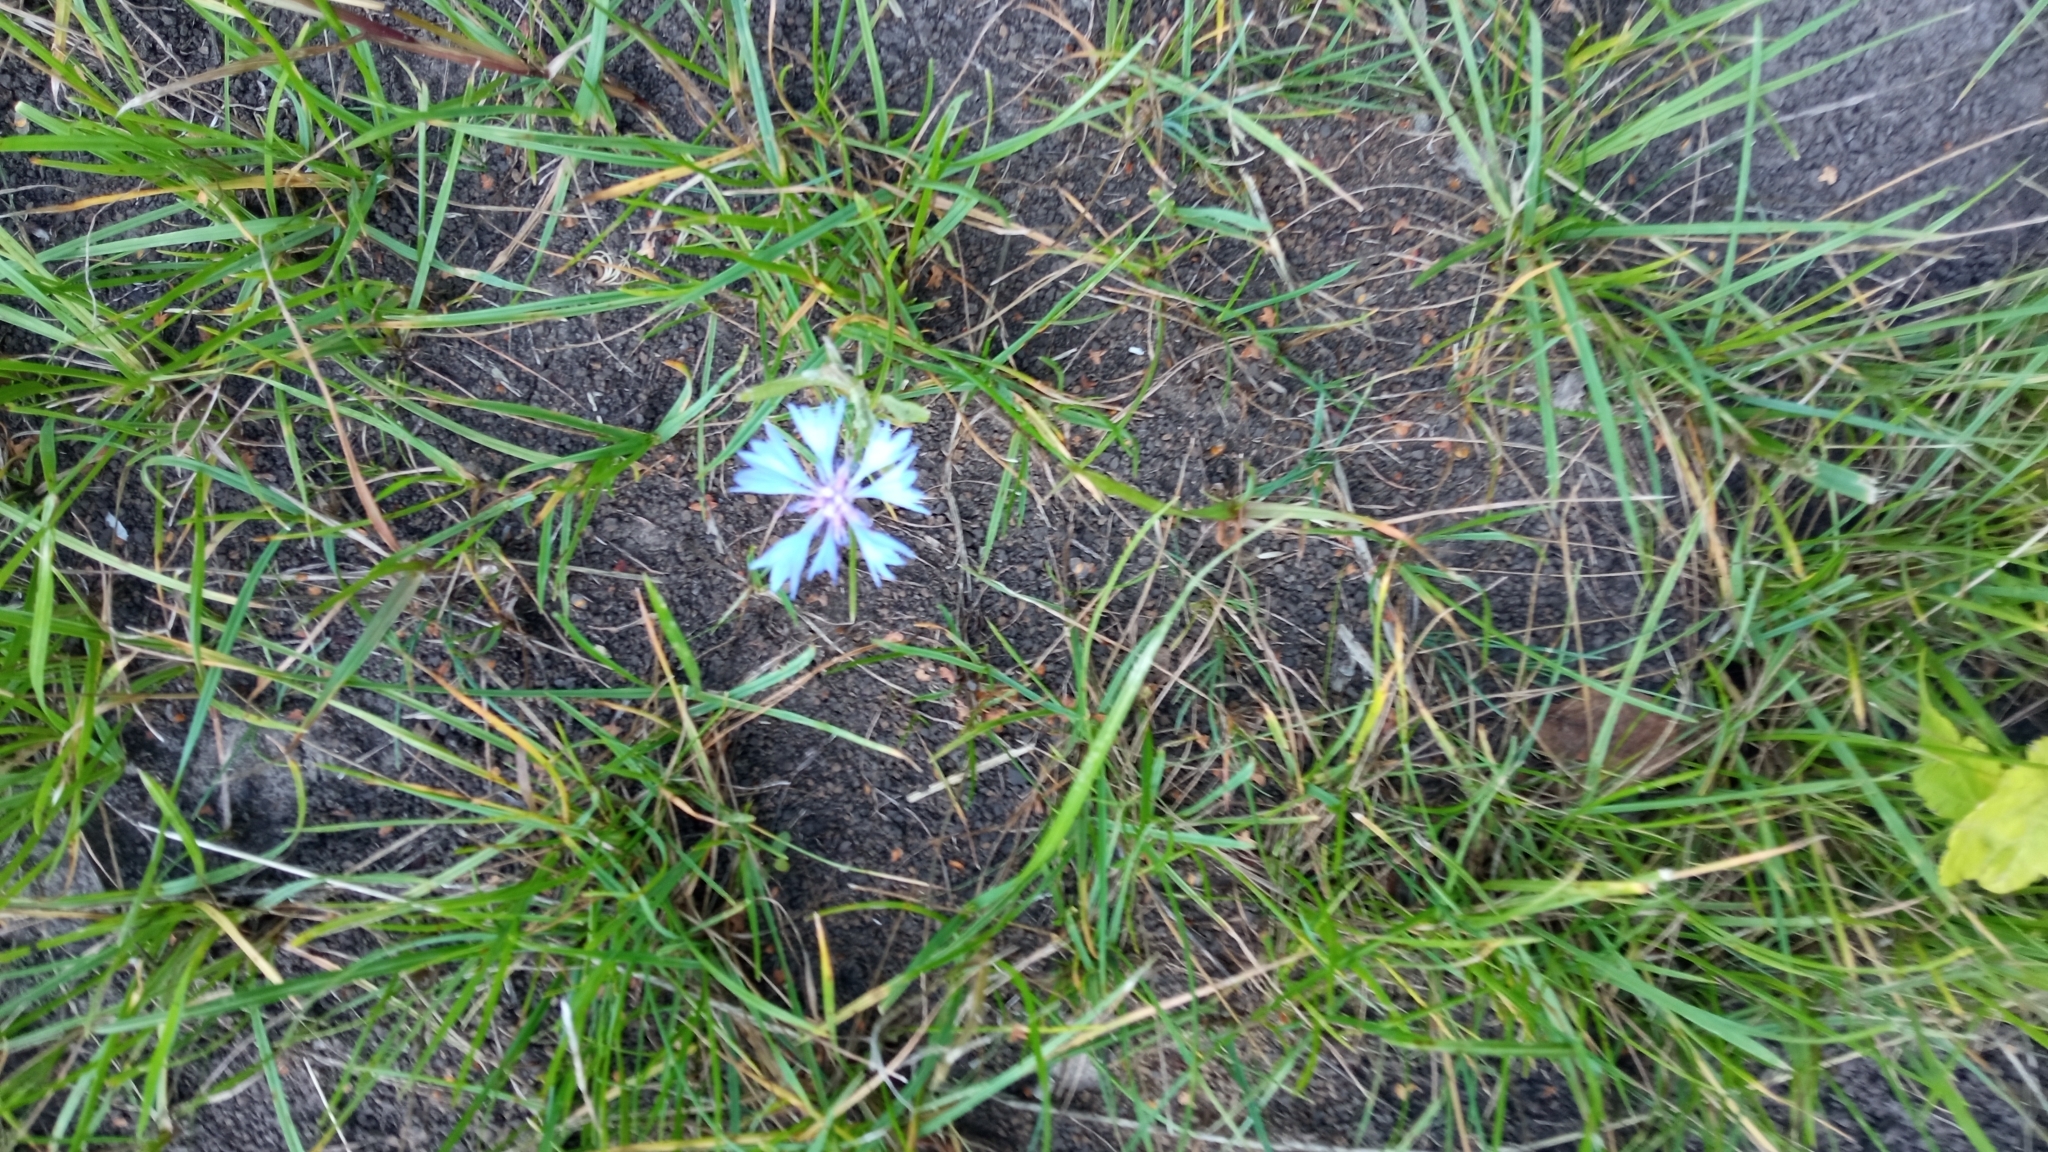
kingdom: Plantae
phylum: Tracheophyta
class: Magnoliopsida
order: Asterales
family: Asteraceae
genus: Centaurea
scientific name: Centaurea cyanus
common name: Cornflower
